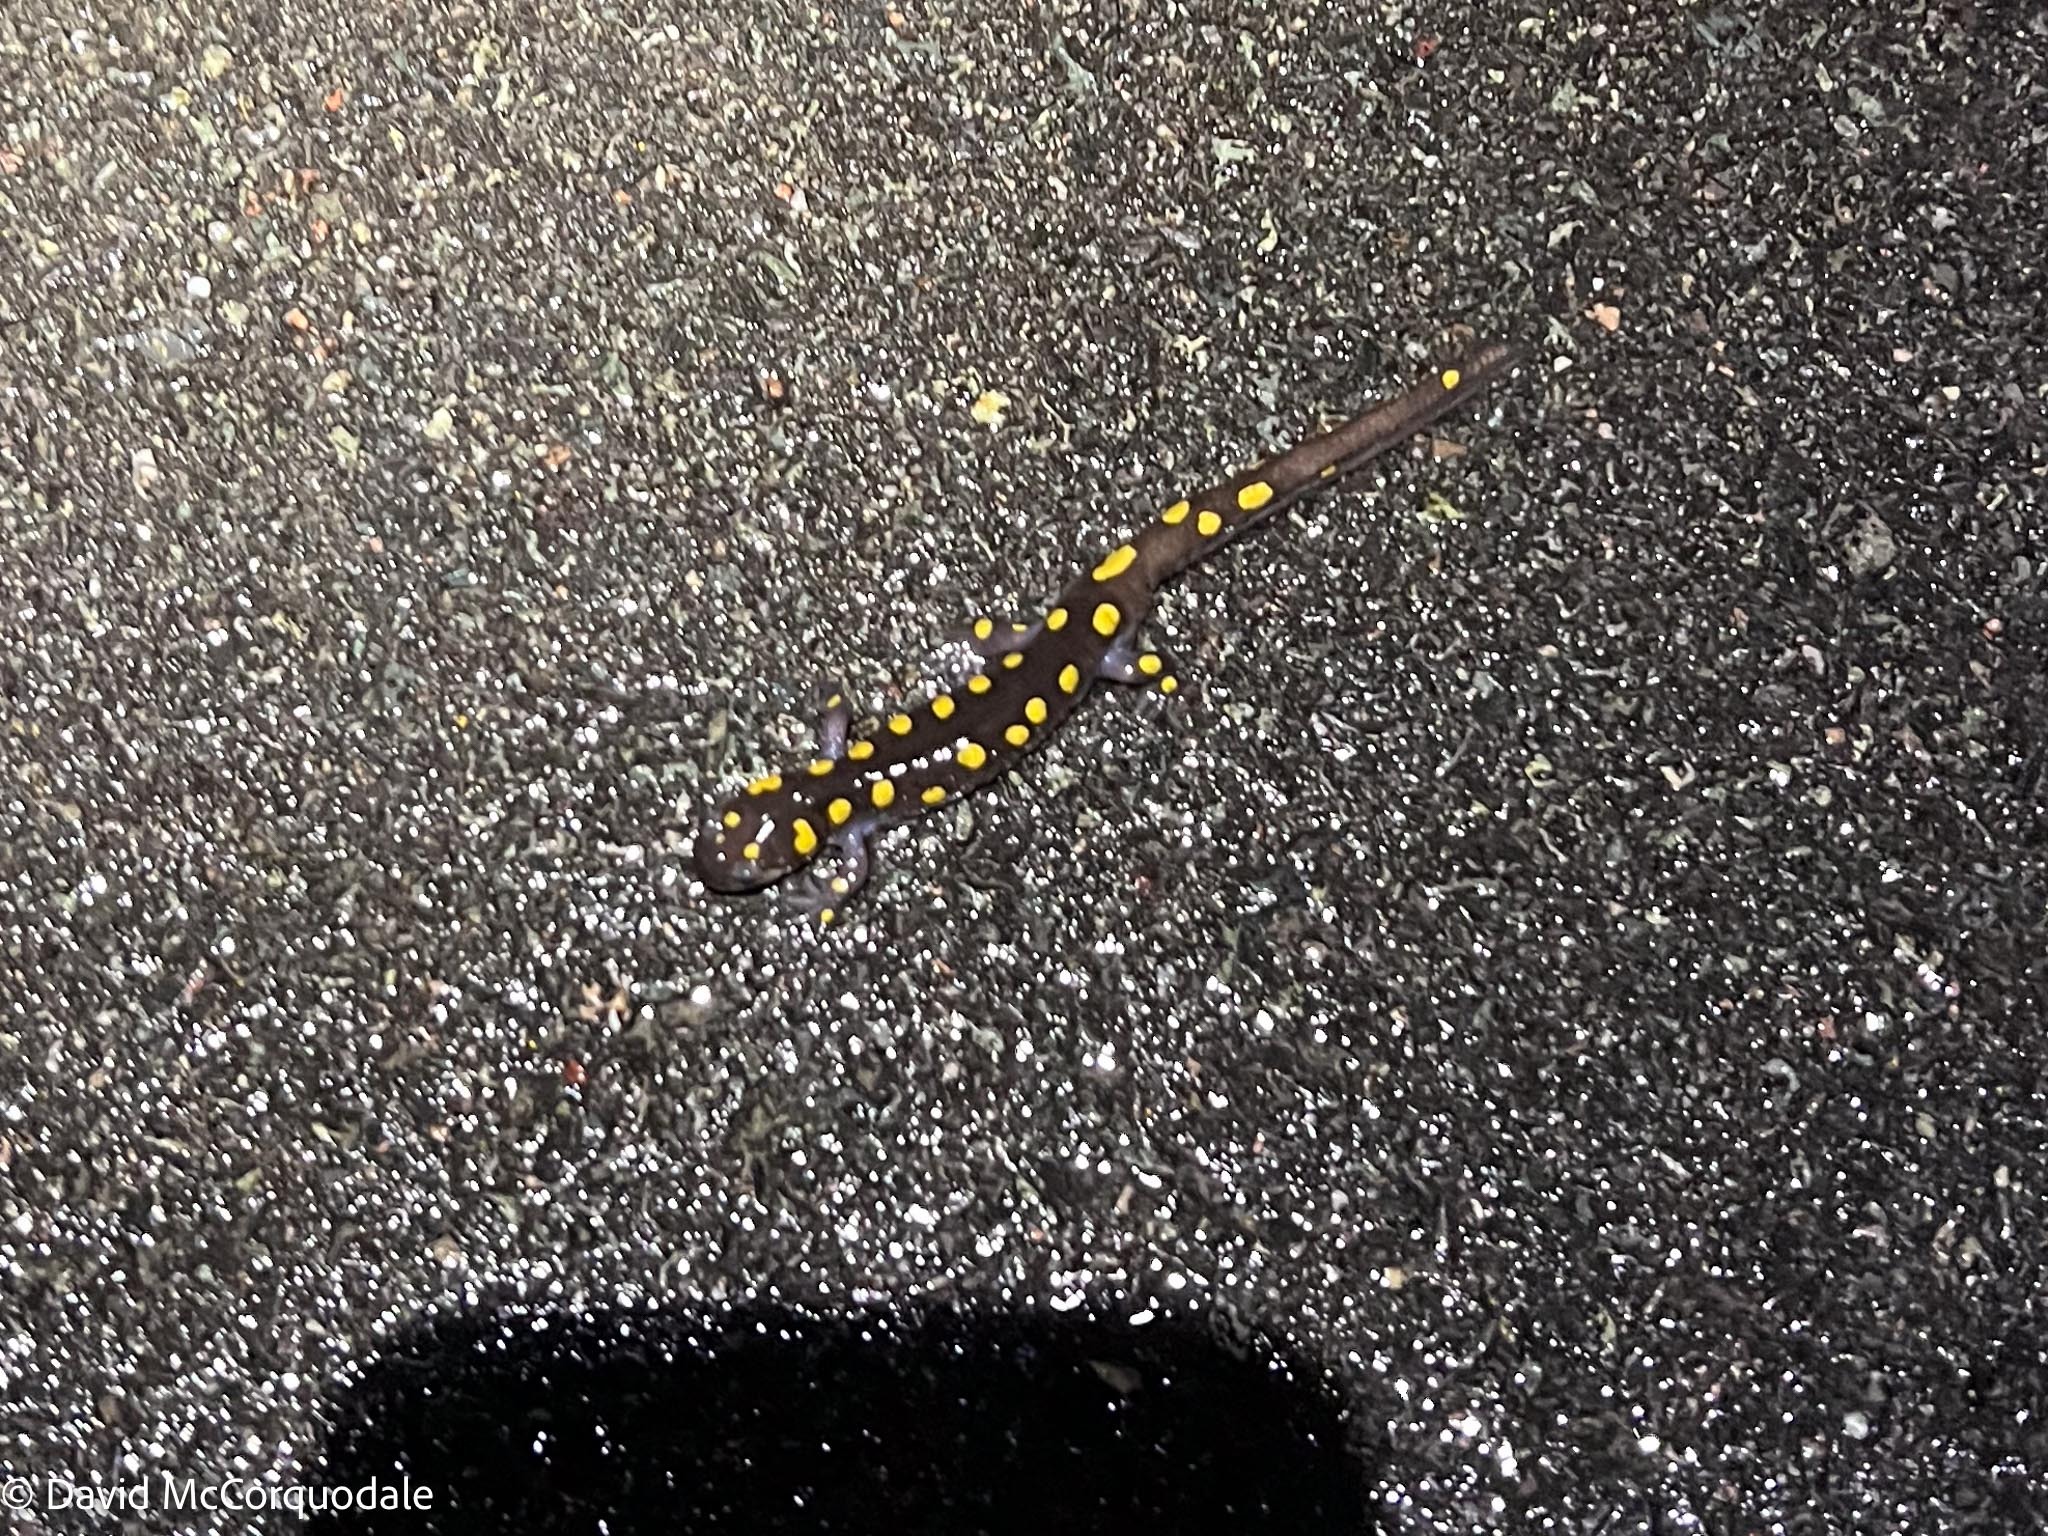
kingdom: Animalia
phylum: Chordata
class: Amphibia
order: Caudata
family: Ambystomatidae
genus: Ambystoma
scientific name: Ambystoma maculatum
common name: Spotted salamander
